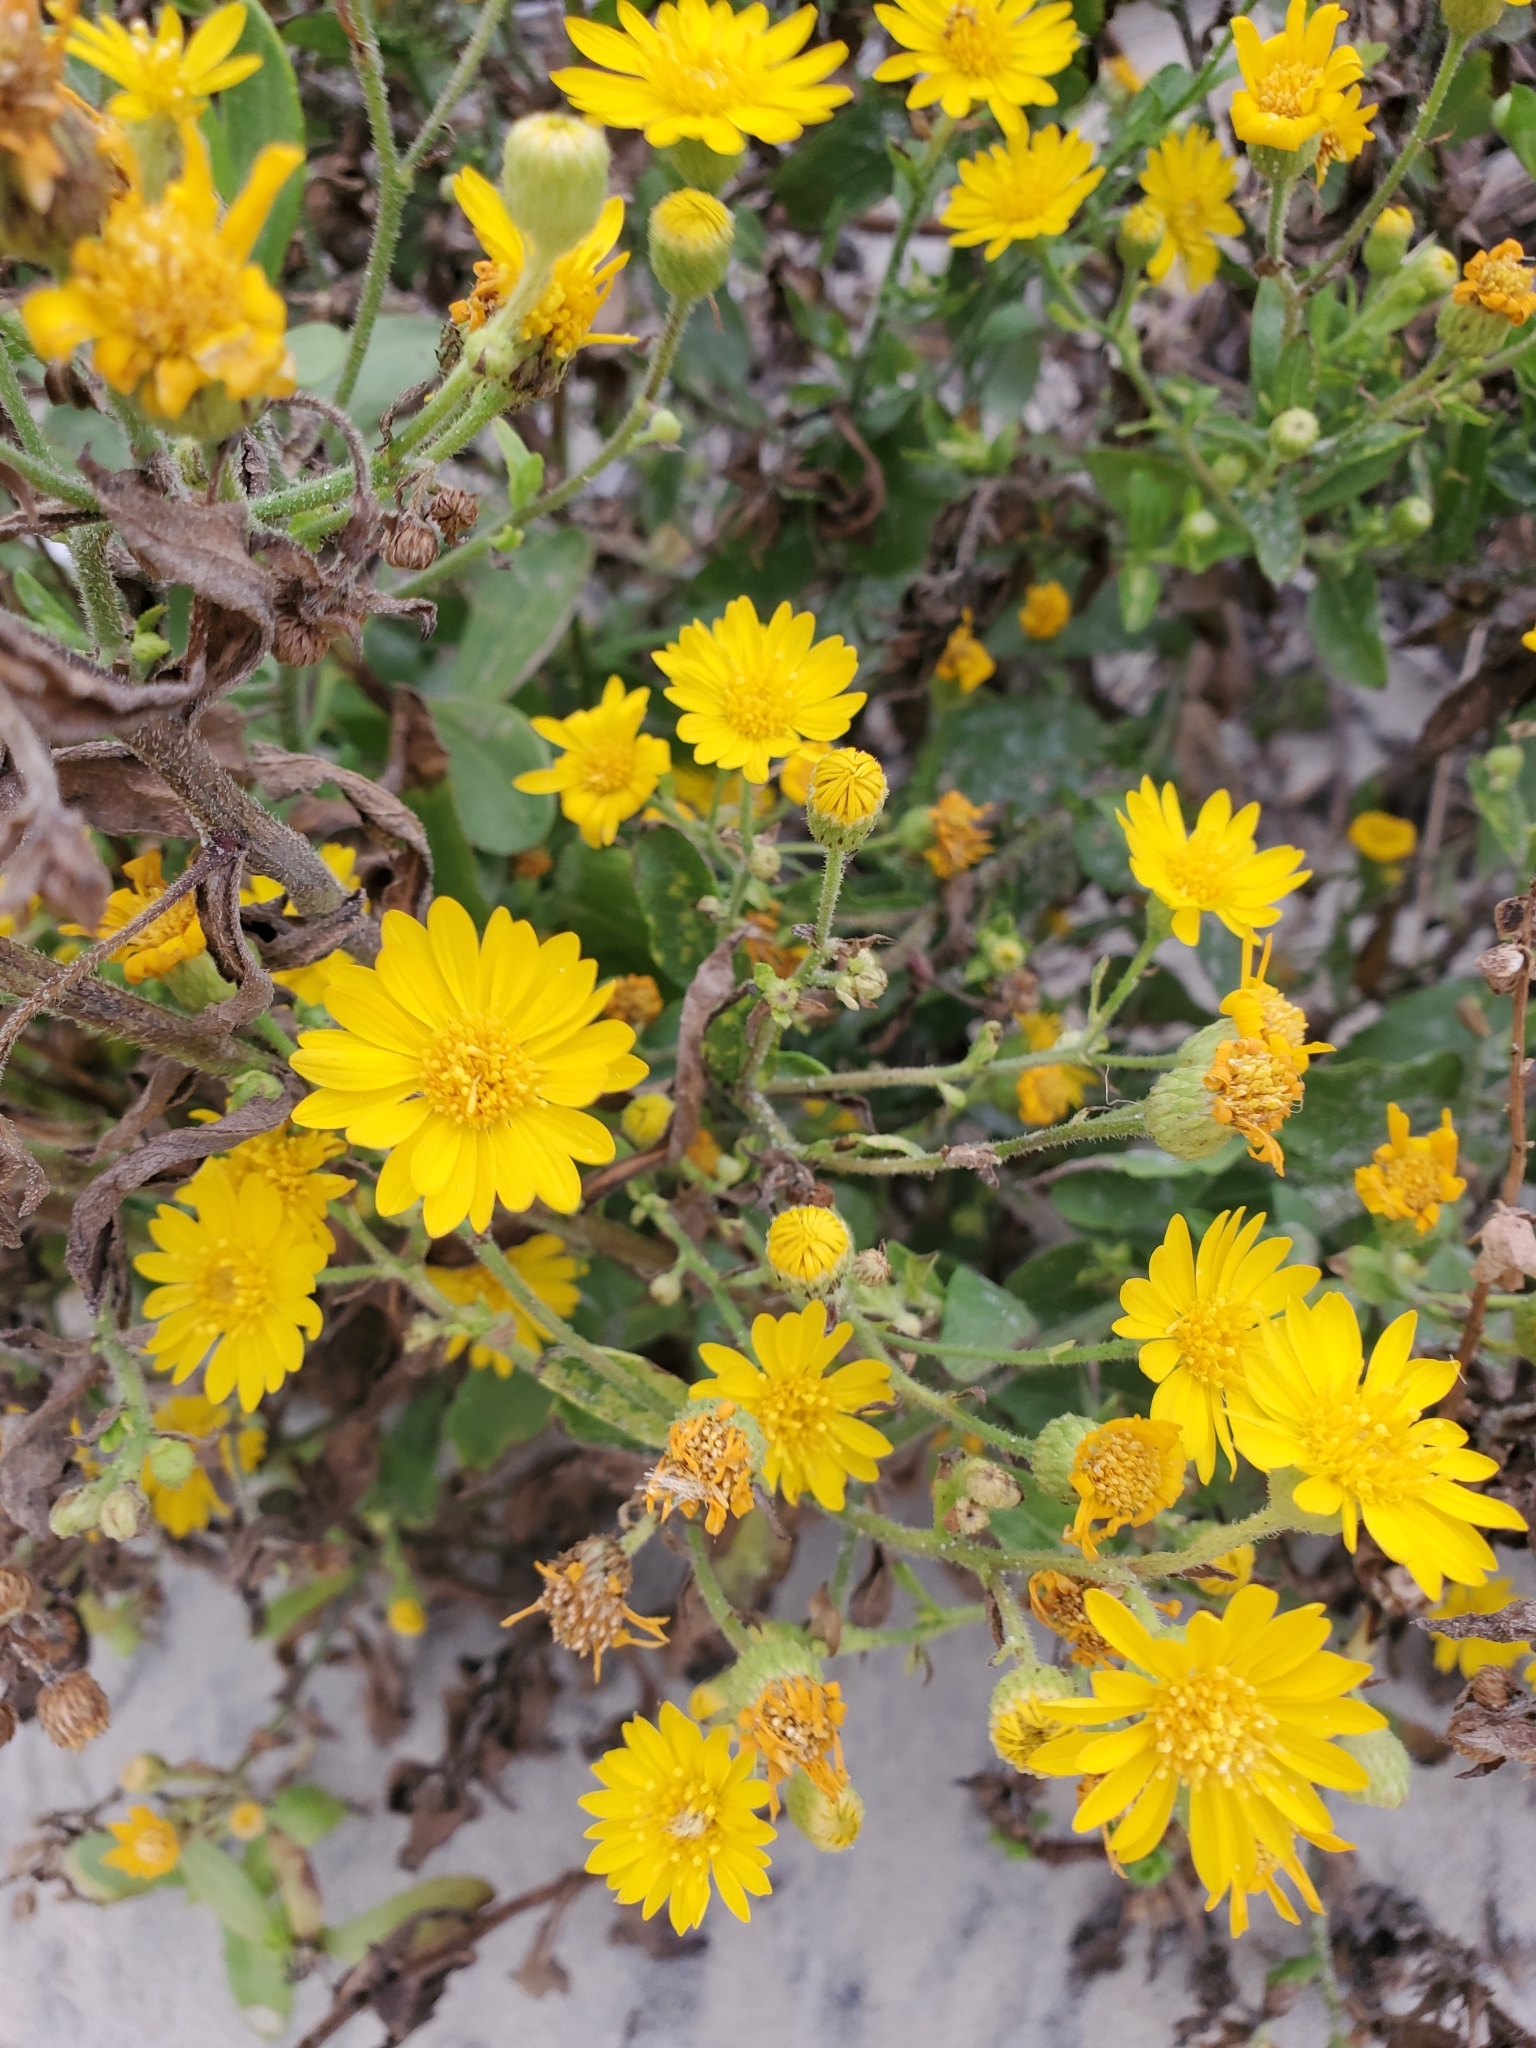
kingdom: Plantae
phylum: Tracheophyta
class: Magnoliopsida
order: Asterales
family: Asteraceae
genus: Heterotheca
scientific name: Heterotheca subaxillaris
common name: Camphorweed
